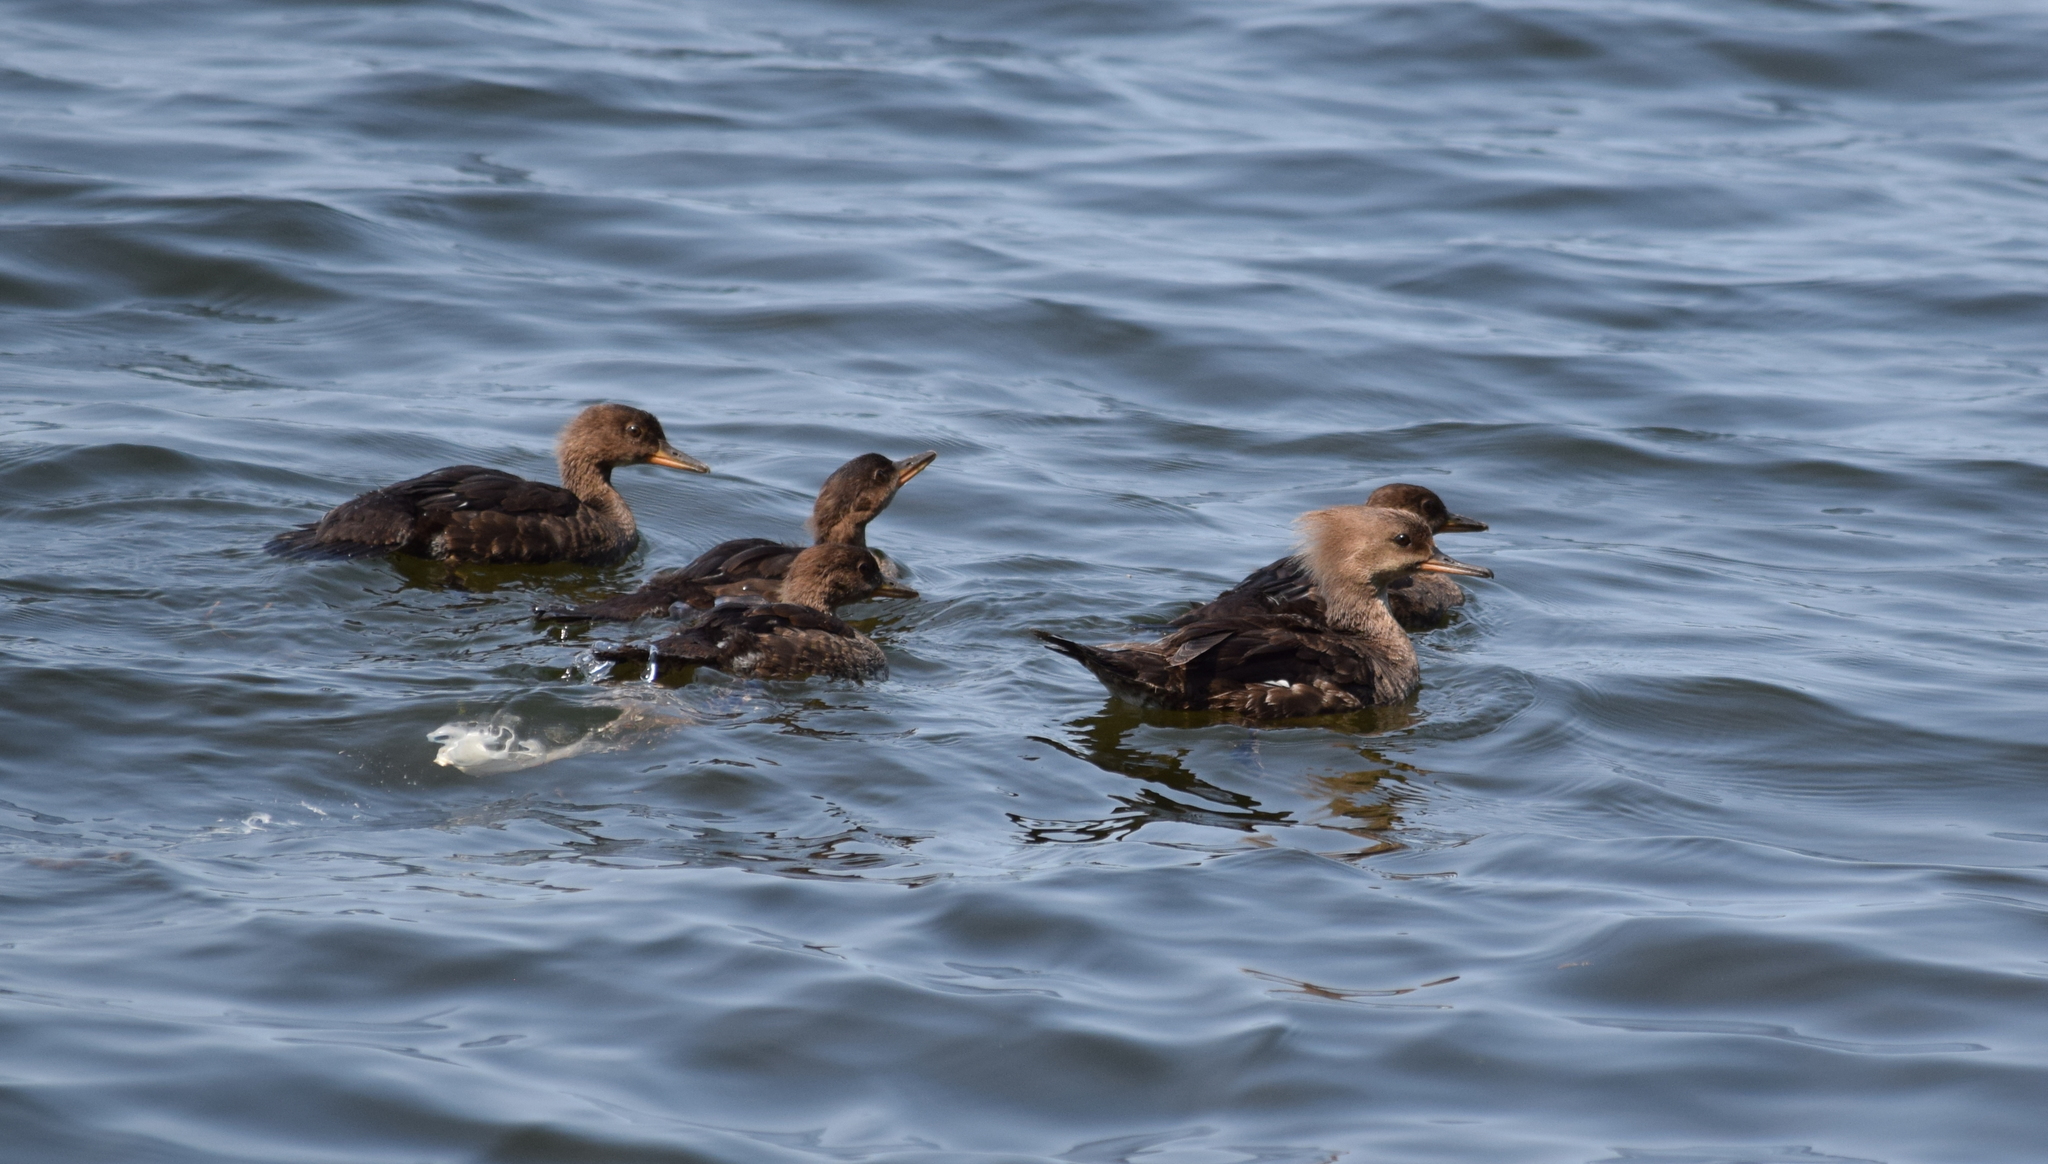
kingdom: Animalia
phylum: Chordata
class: Aves
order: Anseriformes
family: Anatidae
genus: Lophodytes
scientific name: Lophodytes cucullatus
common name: Hooded merganser
